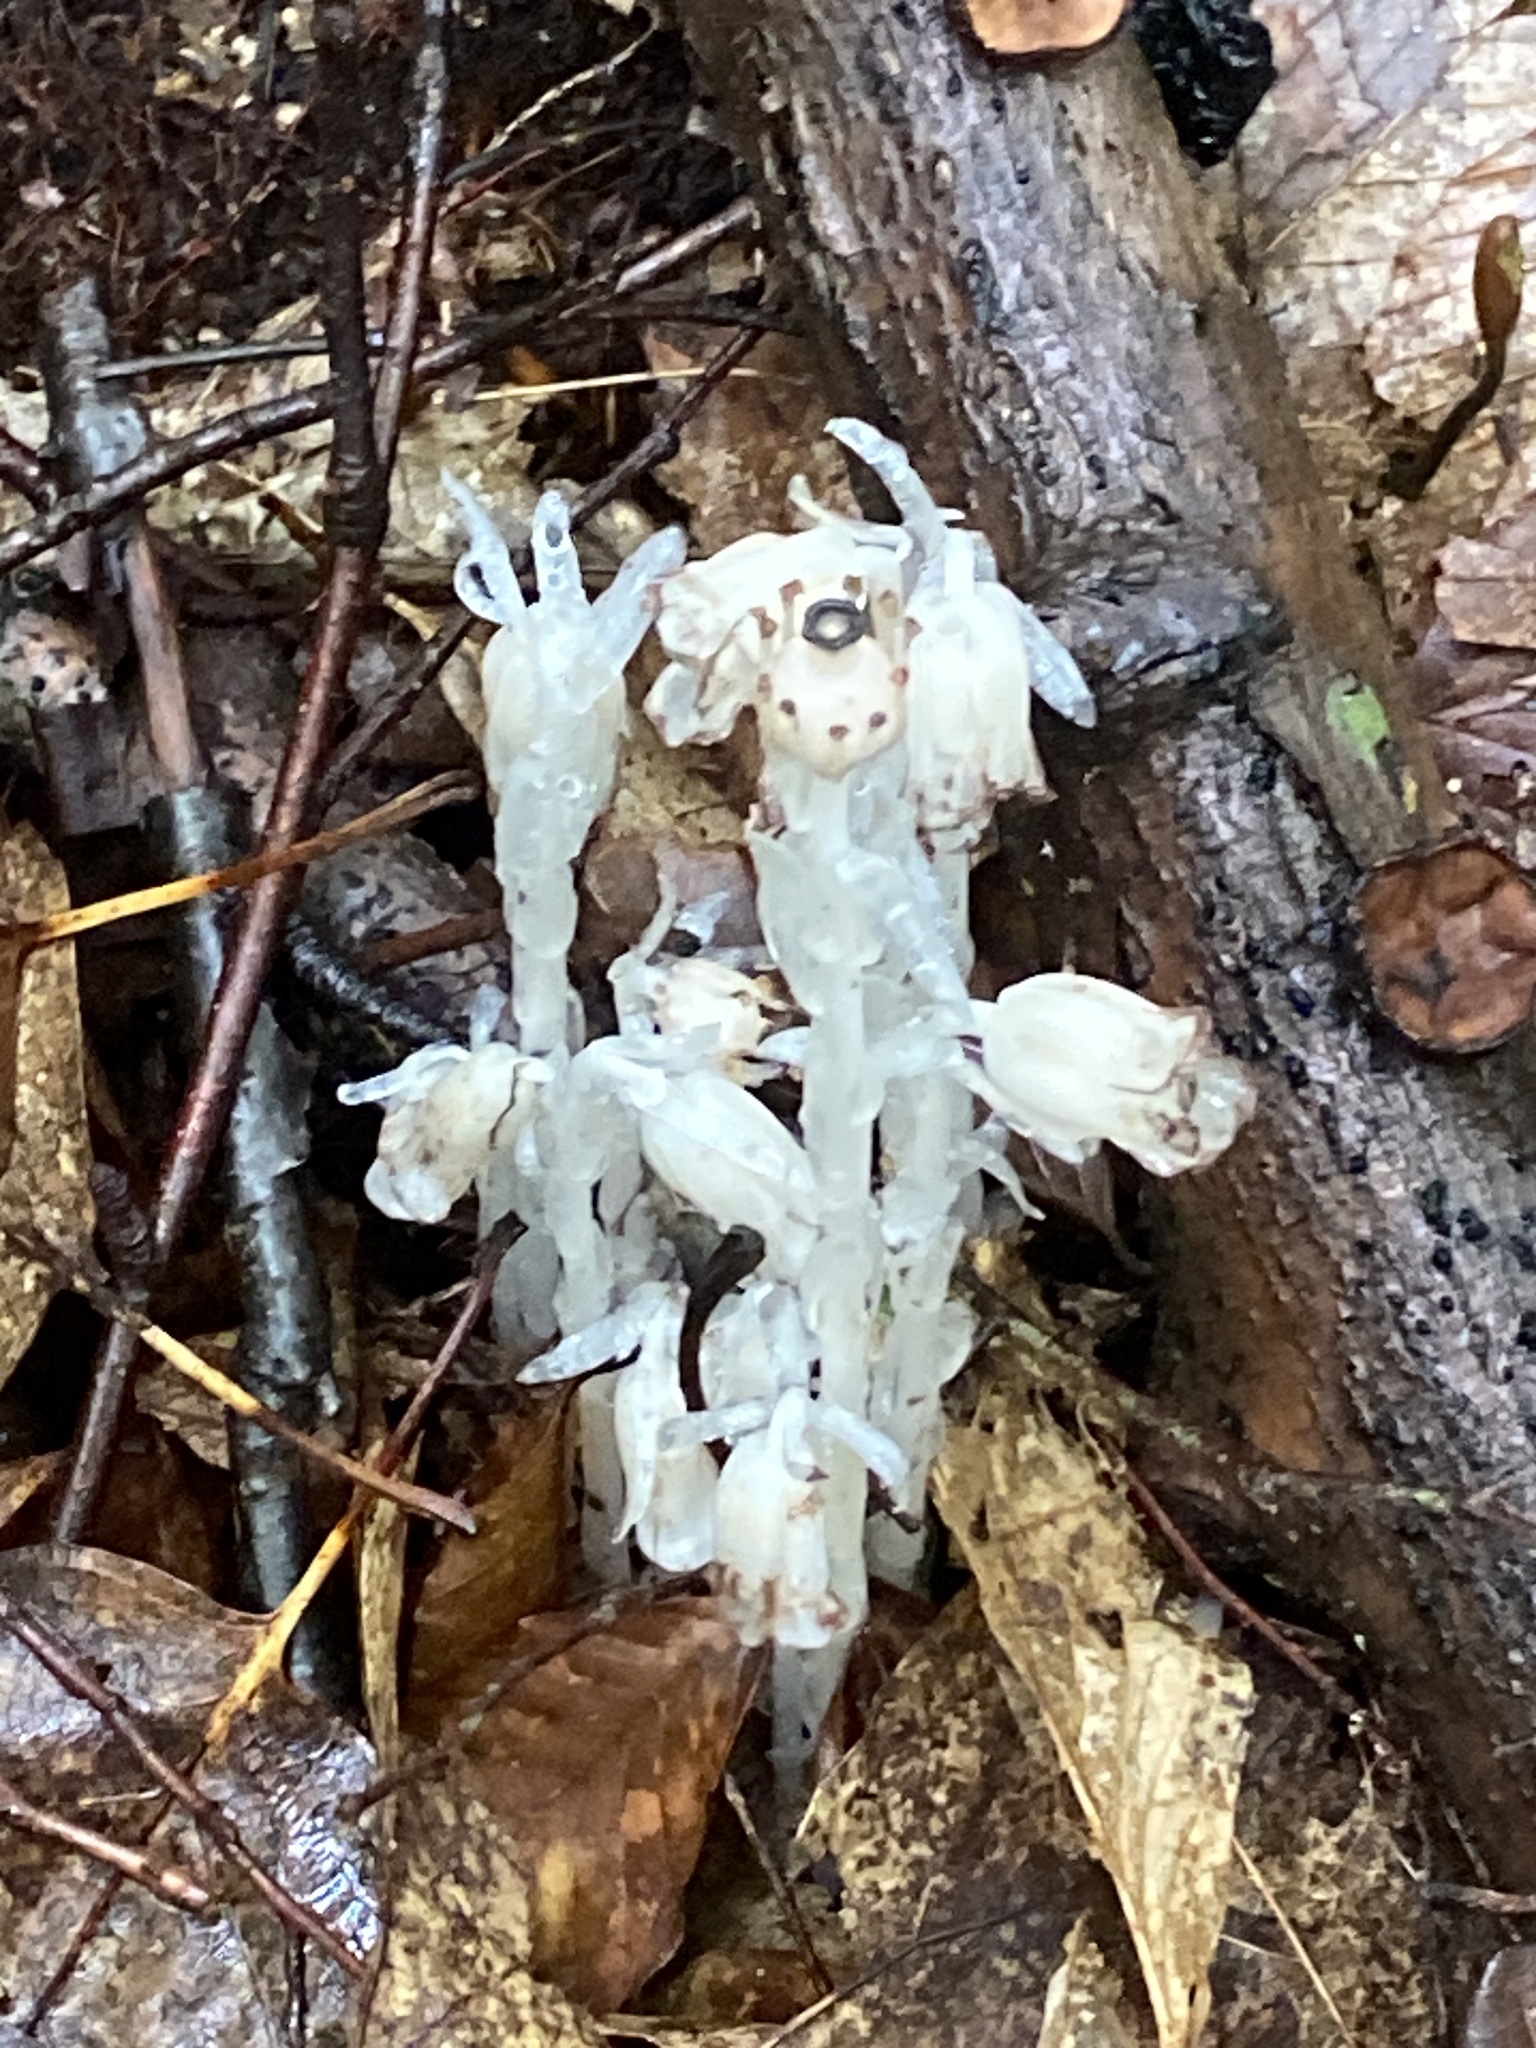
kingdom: Plantae
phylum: Tracheophyta
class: Magnoliopsida
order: Ericales
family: Ericaceae
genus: Monotropa
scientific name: Monotropa uniflora
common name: Convulsion root
